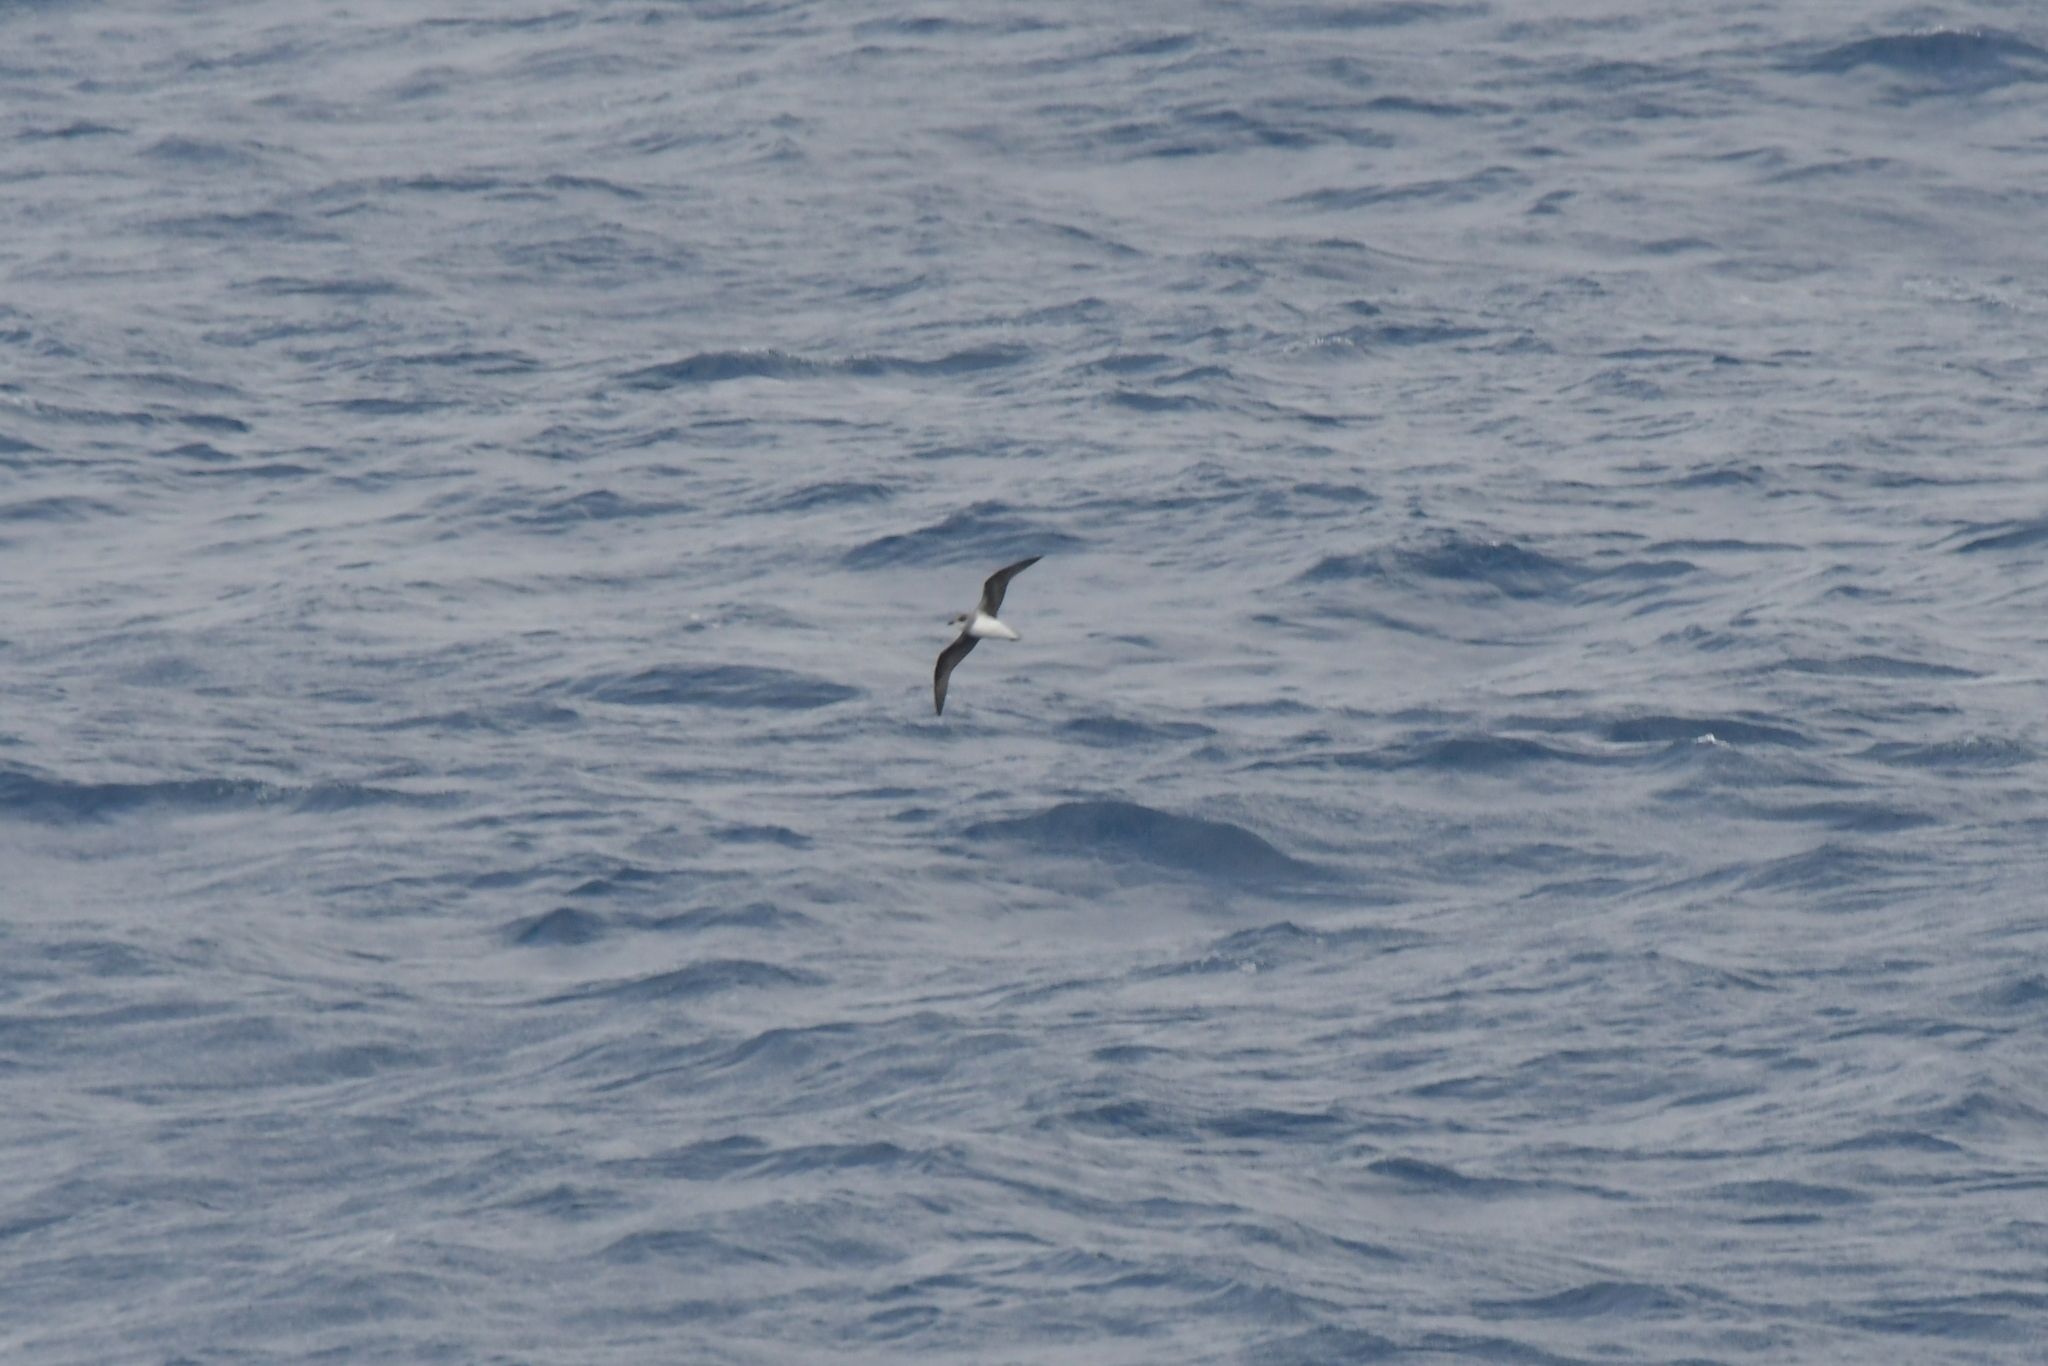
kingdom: Animalia
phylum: Chordata
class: Aves
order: Procellariiformes
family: Procellariidae
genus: Pterodroma
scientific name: Pterodroma mollis
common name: Soft-plumaged petrel
